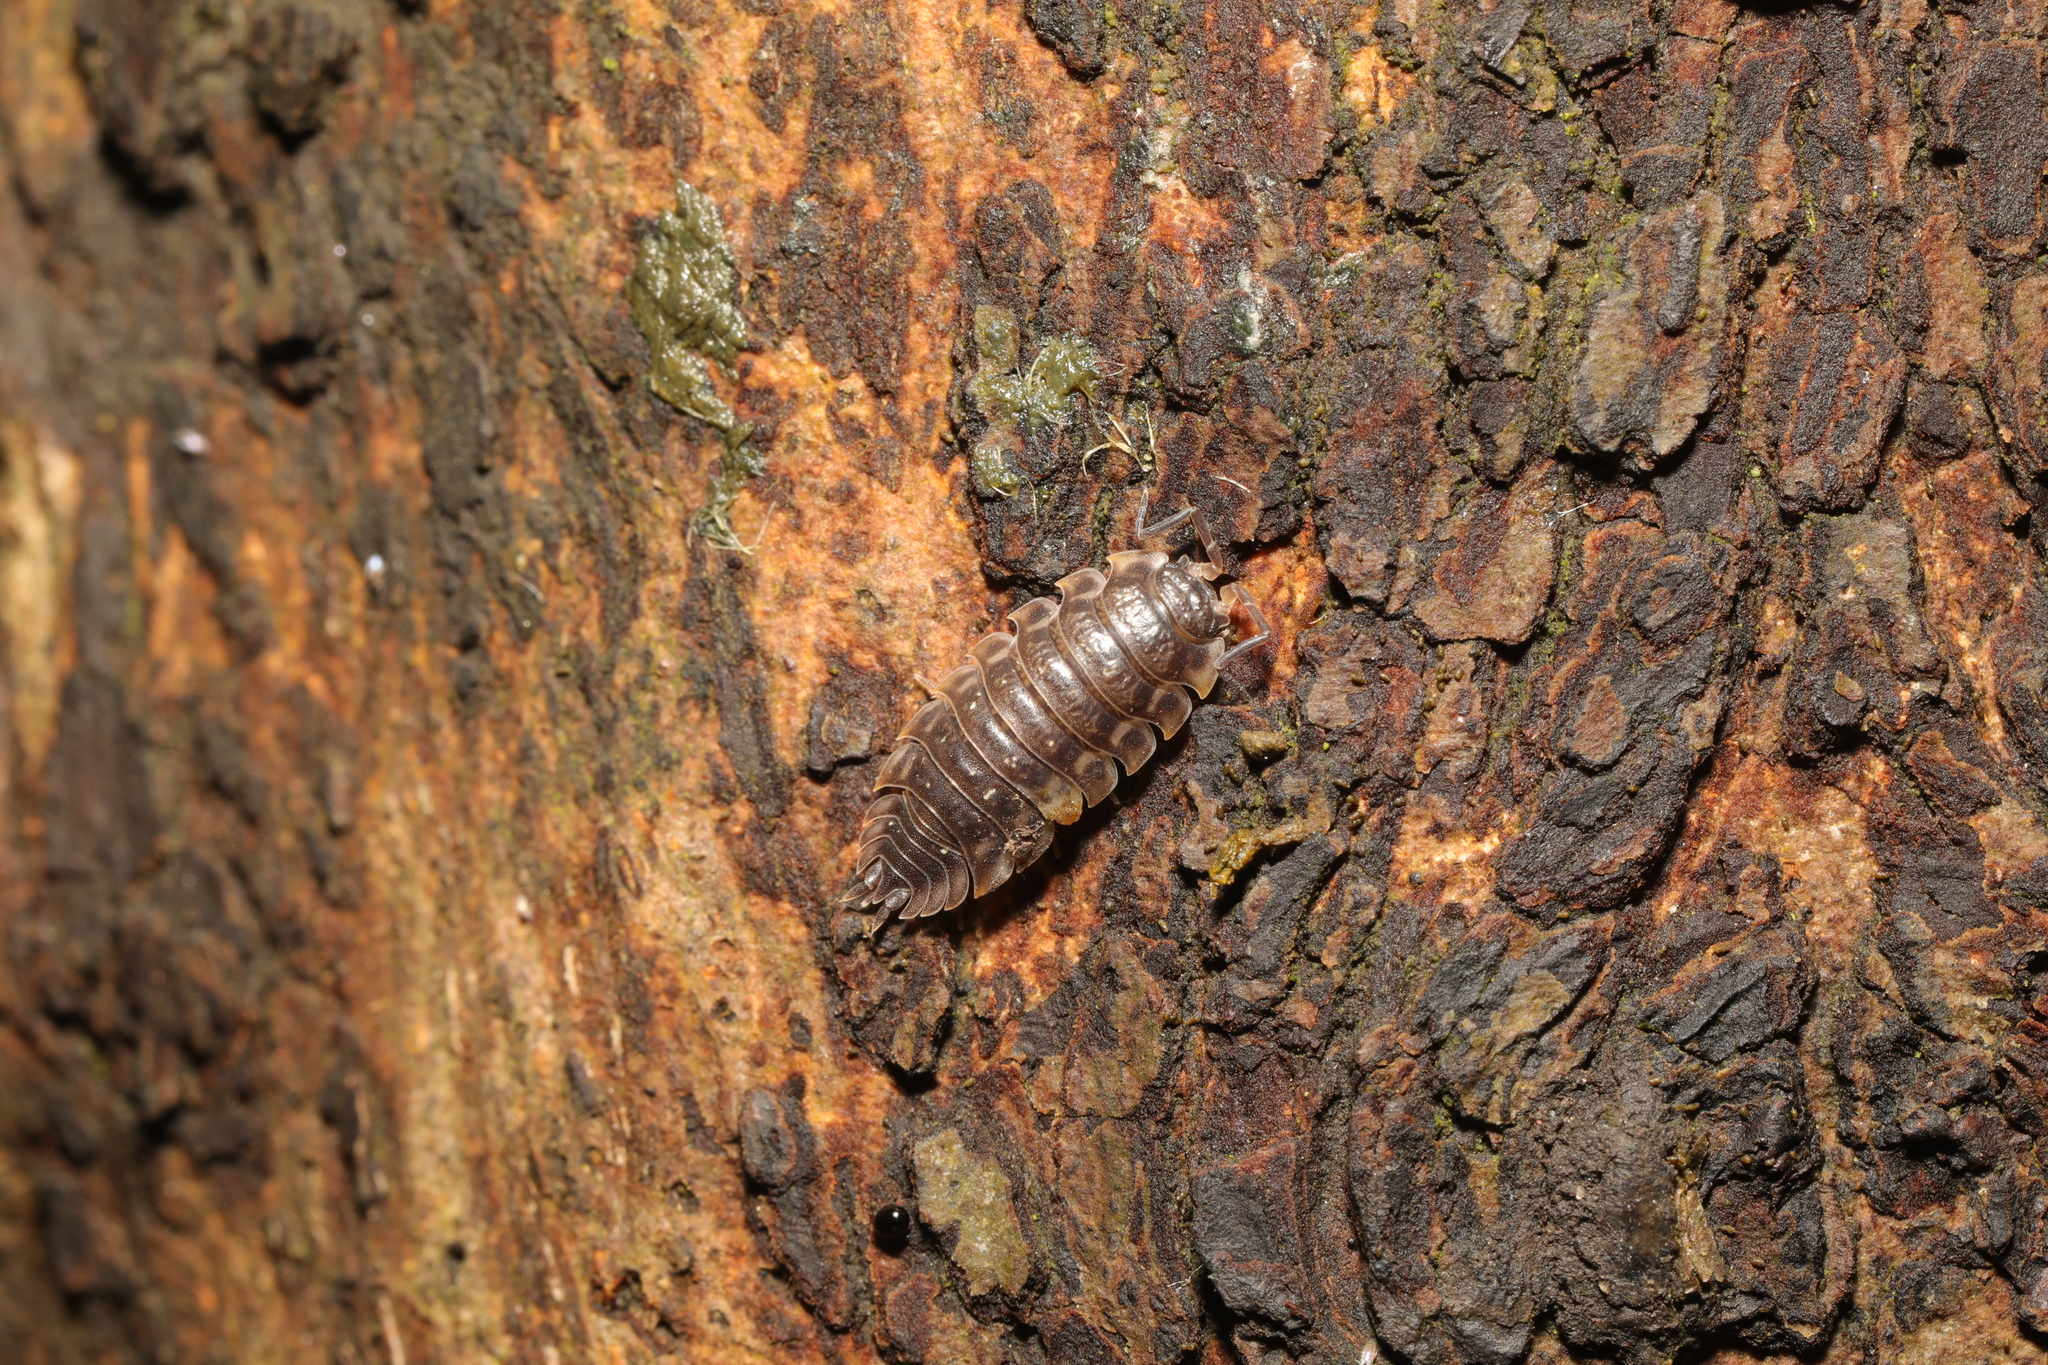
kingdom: Animalia
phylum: Arthropoda
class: Malacostraca
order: Isopoda
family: Oniscidae
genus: Oniscus
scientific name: Oniscus asellus
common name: Common shiny woodlouse
